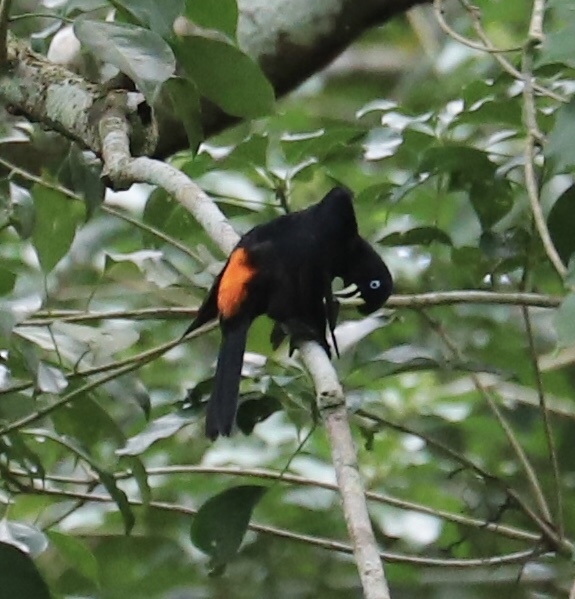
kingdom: Animalia
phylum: Chordata
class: Aves
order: Passeriformes
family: Icteridae
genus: Cacicus
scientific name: Cacicus uropygialis
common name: Scarlet-rumped cacique
